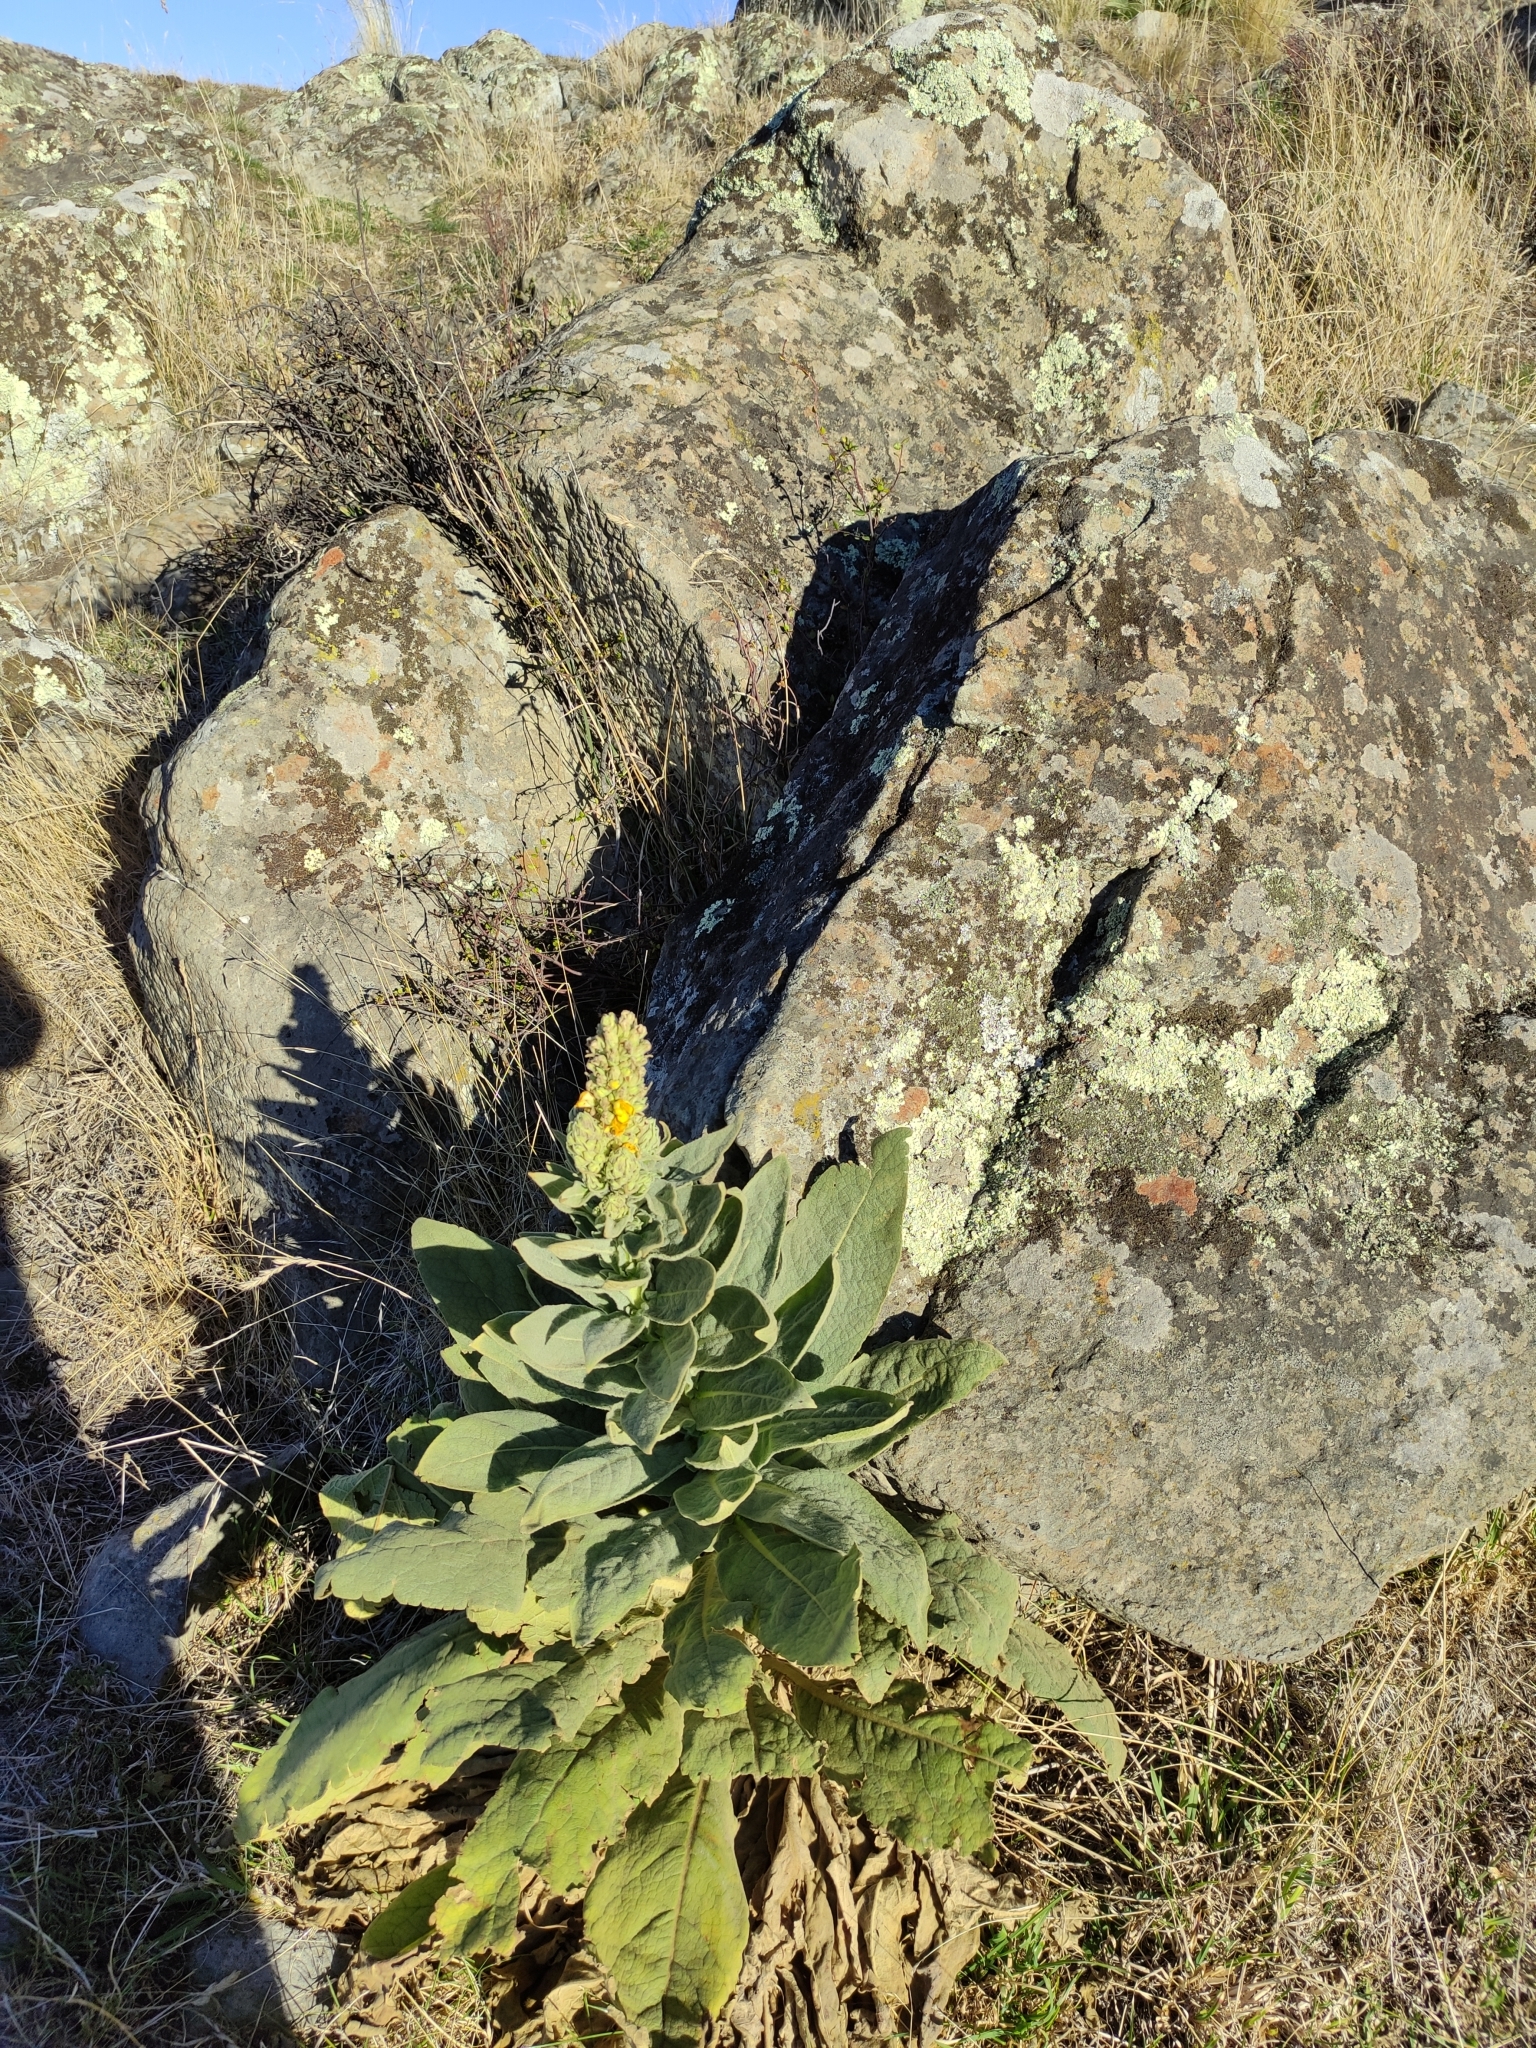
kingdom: Plantae
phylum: Tracheophyta
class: Magnoliopsida
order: Lamiales
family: Scrophulariaceae
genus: Verbascum
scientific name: Verbascum thapsus
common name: Common mullein
